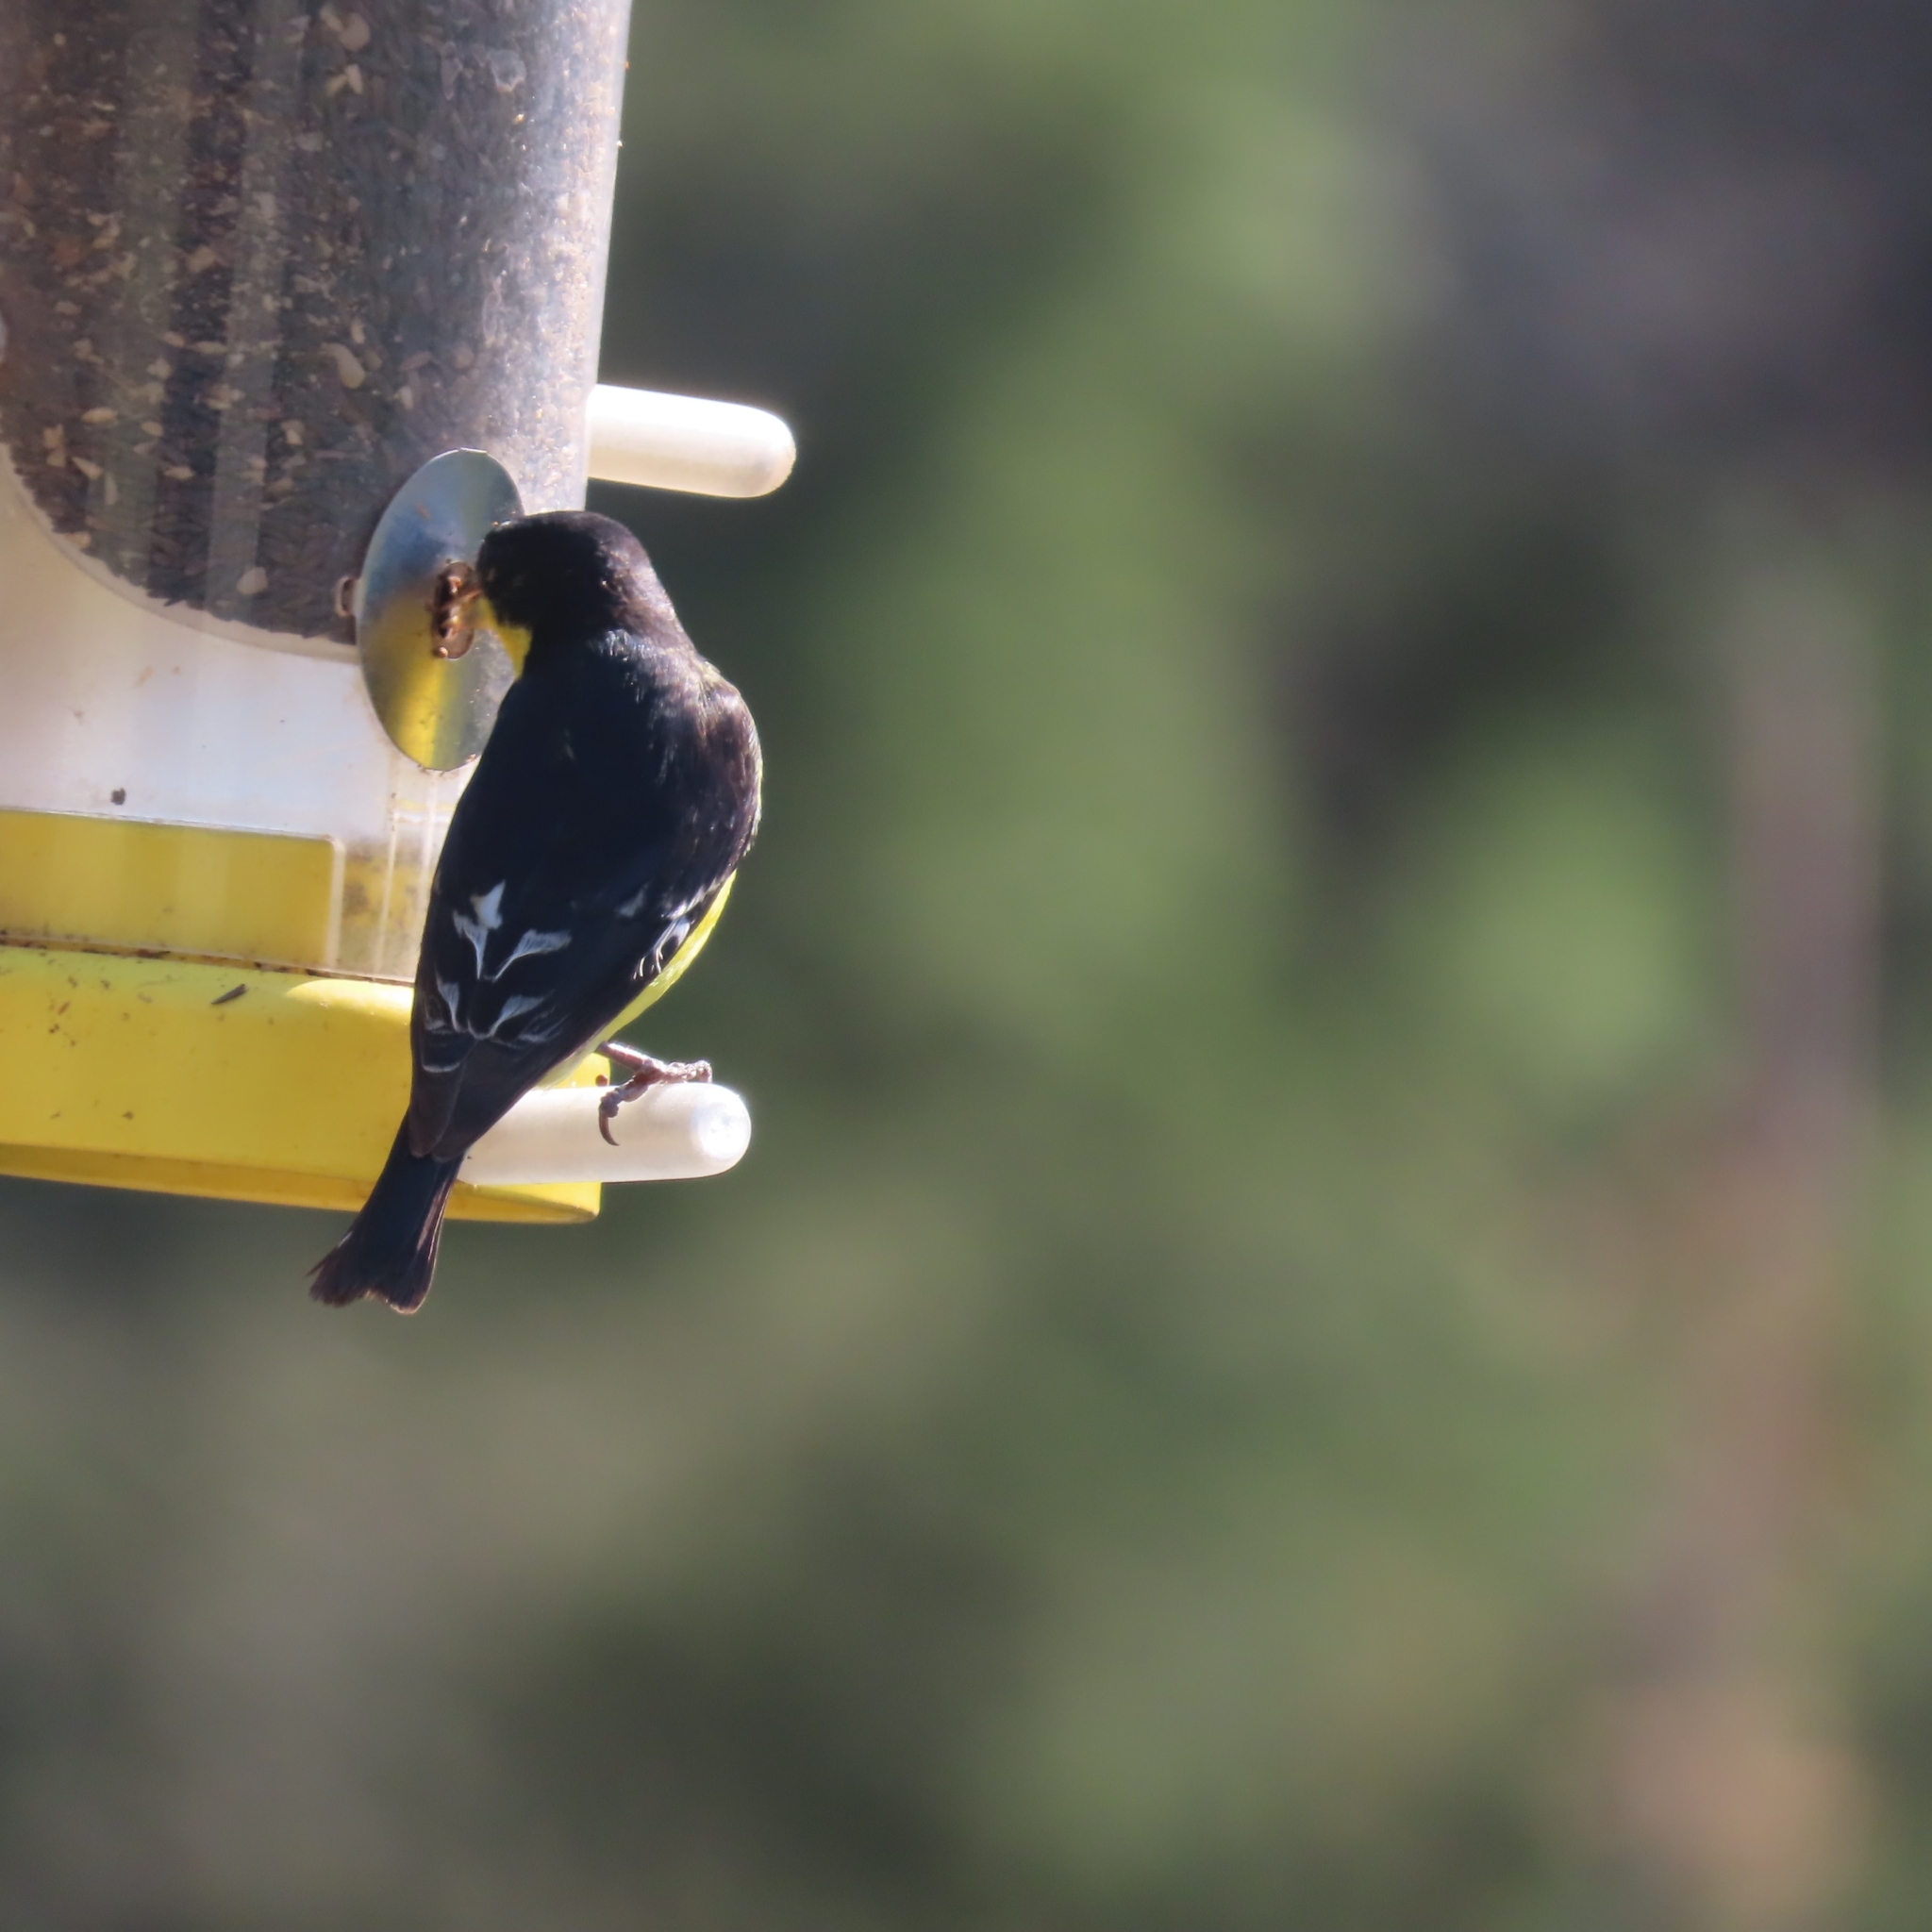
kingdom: Animalia
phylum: Chordata
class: Aves
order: Passeriformes
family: Fringillidae
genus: Spinus
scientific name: Spinus psaltria
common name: Lesser goldfinch
